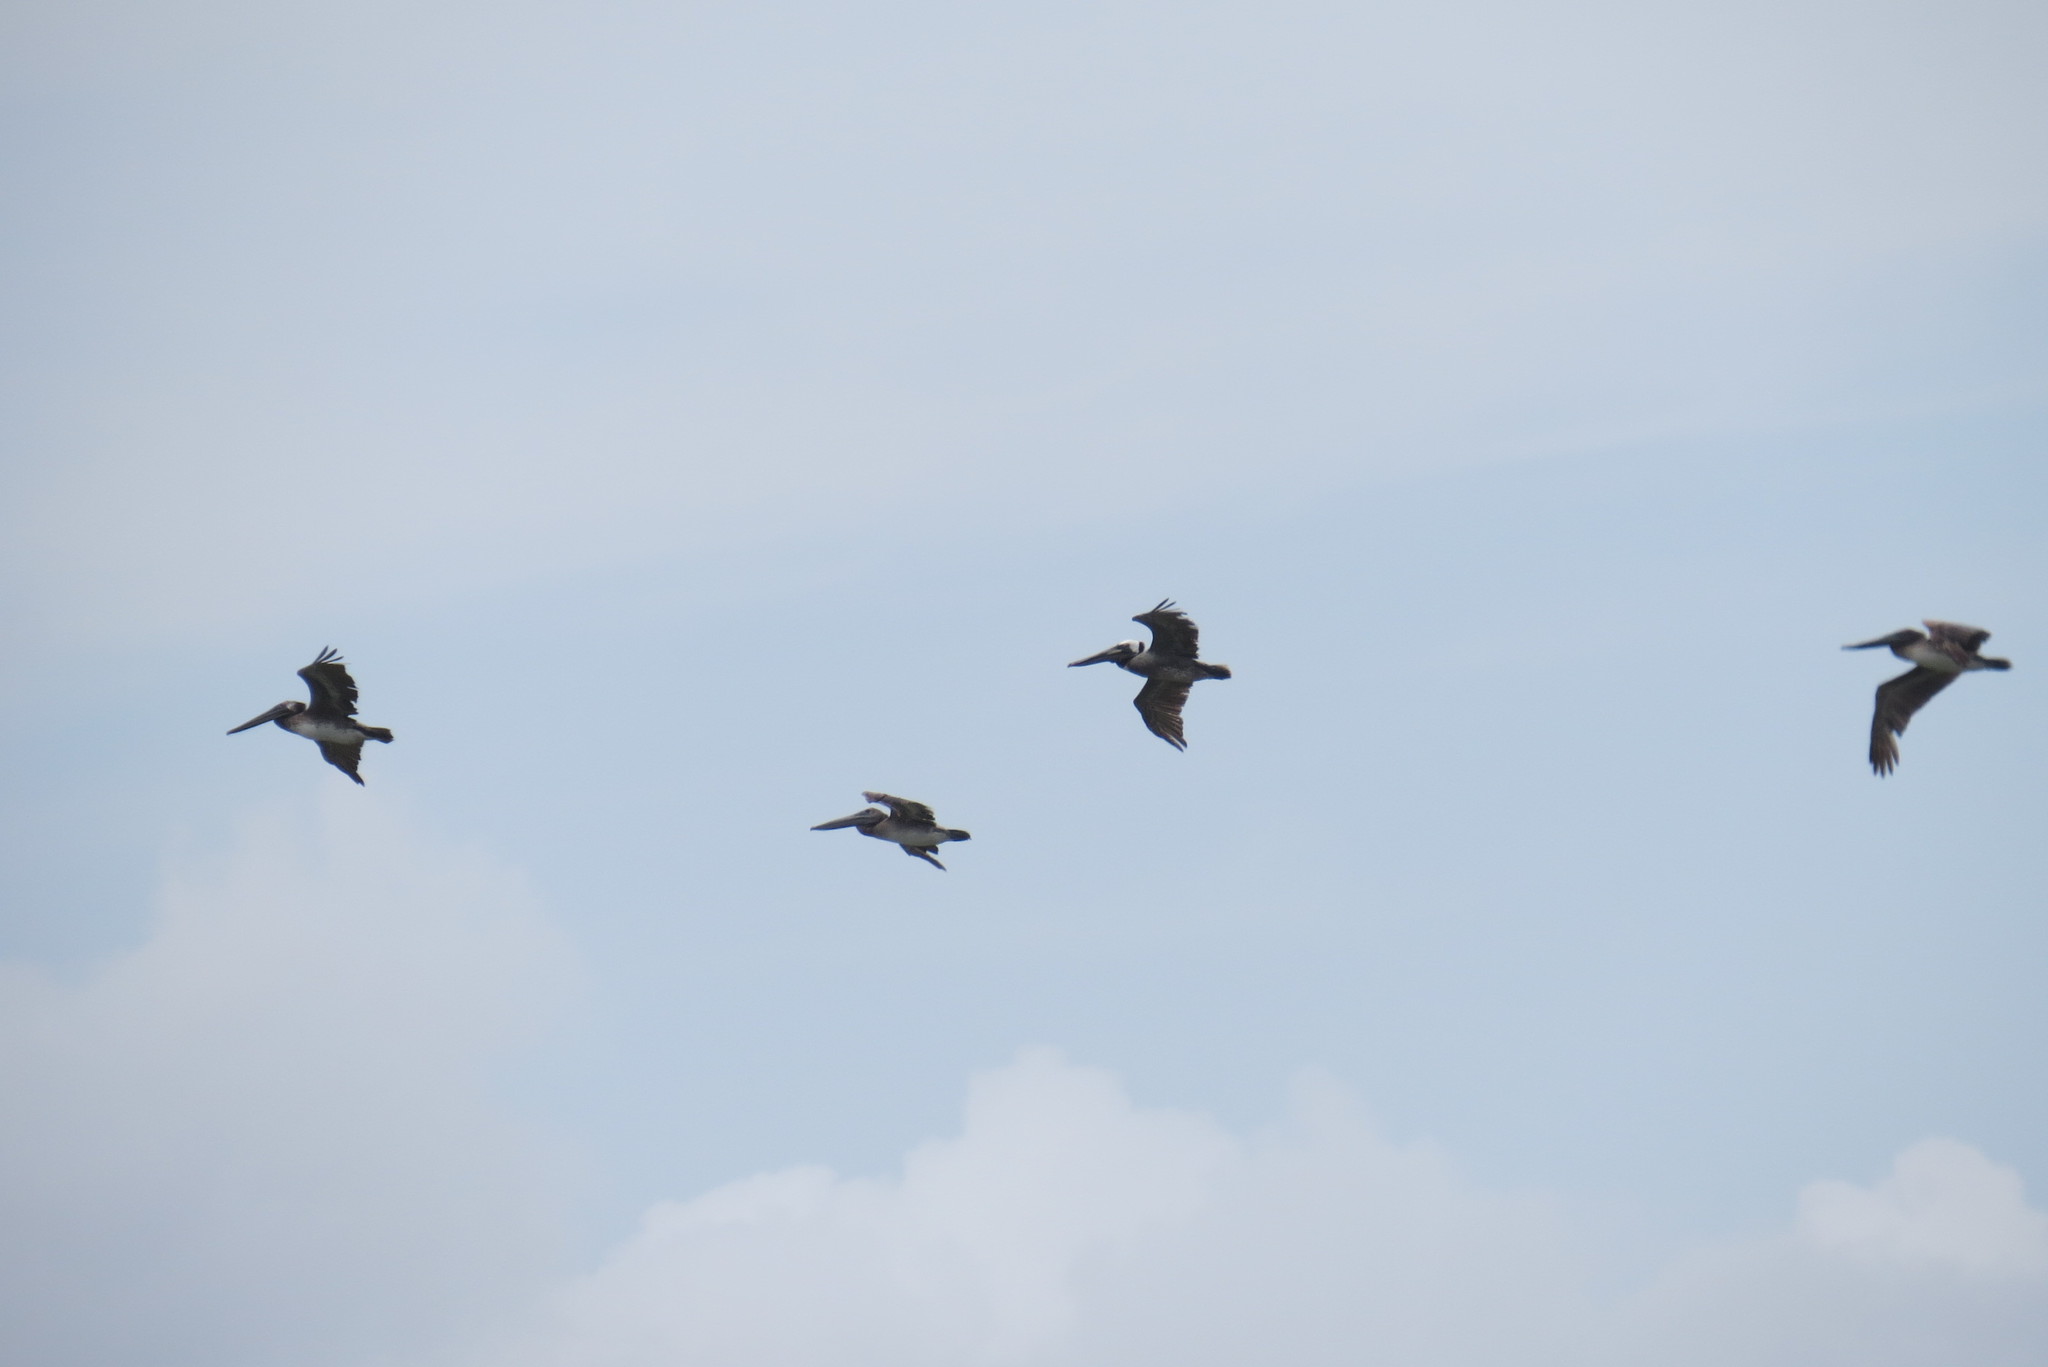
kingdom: Animalia
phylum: Chordata
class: Aves
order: Pelecaniformes
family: Pelecanidae
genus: Pelecanus
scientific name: Pelecanus occidentalis
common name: Brown pelican
